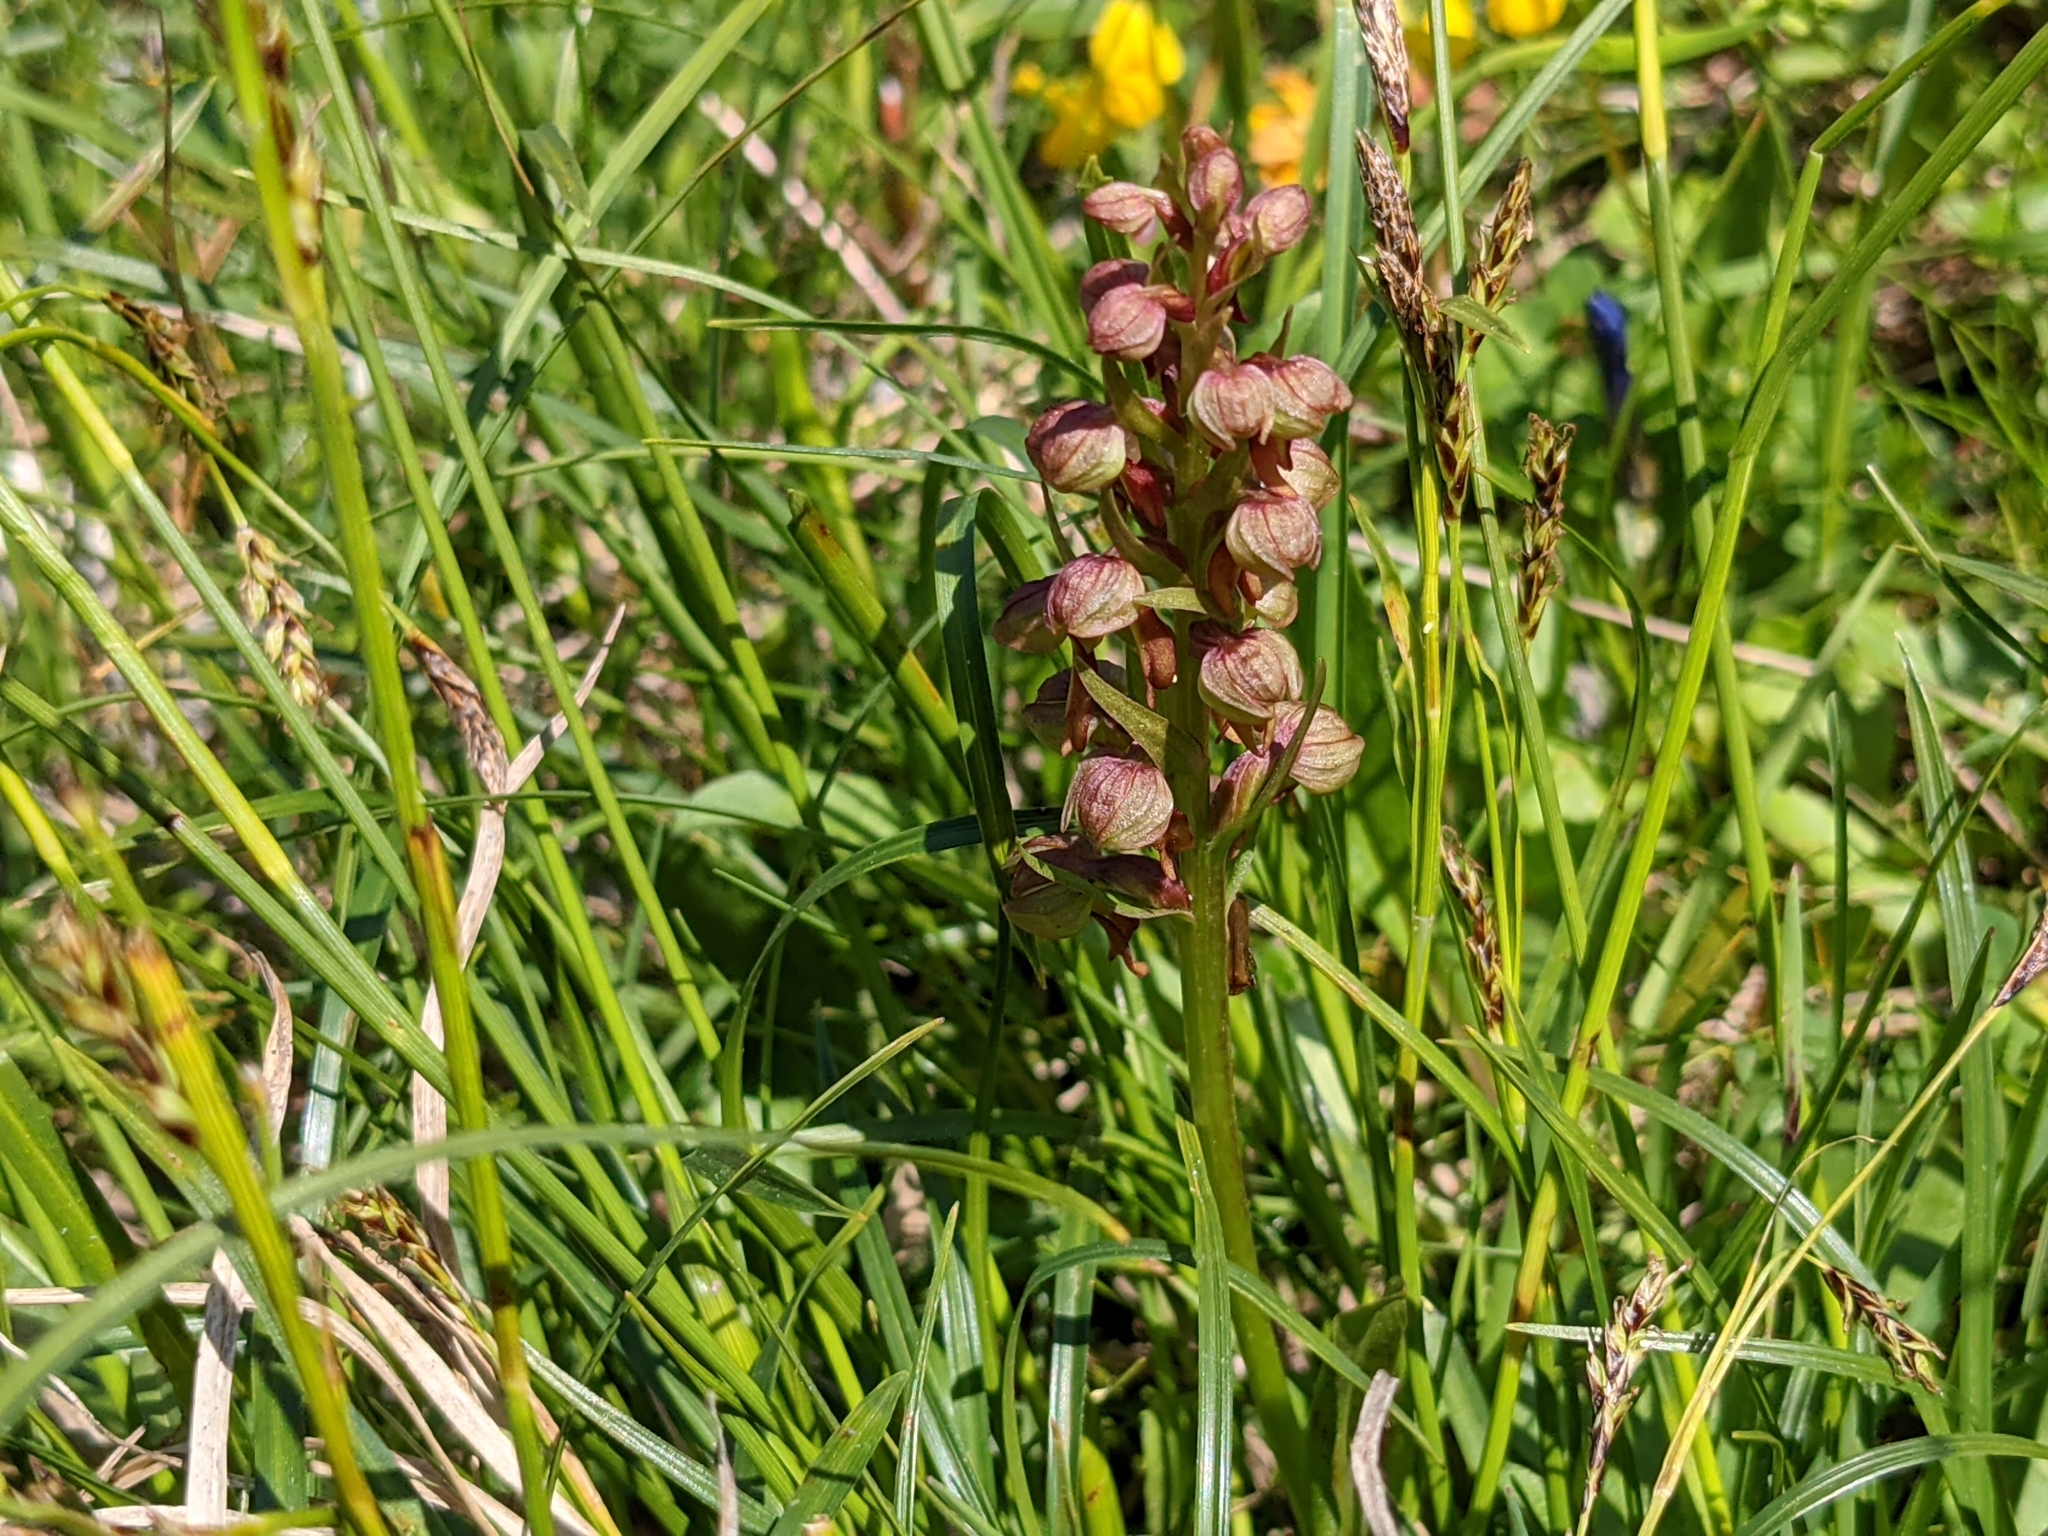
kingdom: Plantae
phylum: Tracheophyta
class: Liliopsida
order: Asparagales
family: Orchidaceae
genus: Dactylorhiza
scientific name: Dactylorhiza viridis
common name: Longbract frog orchid
